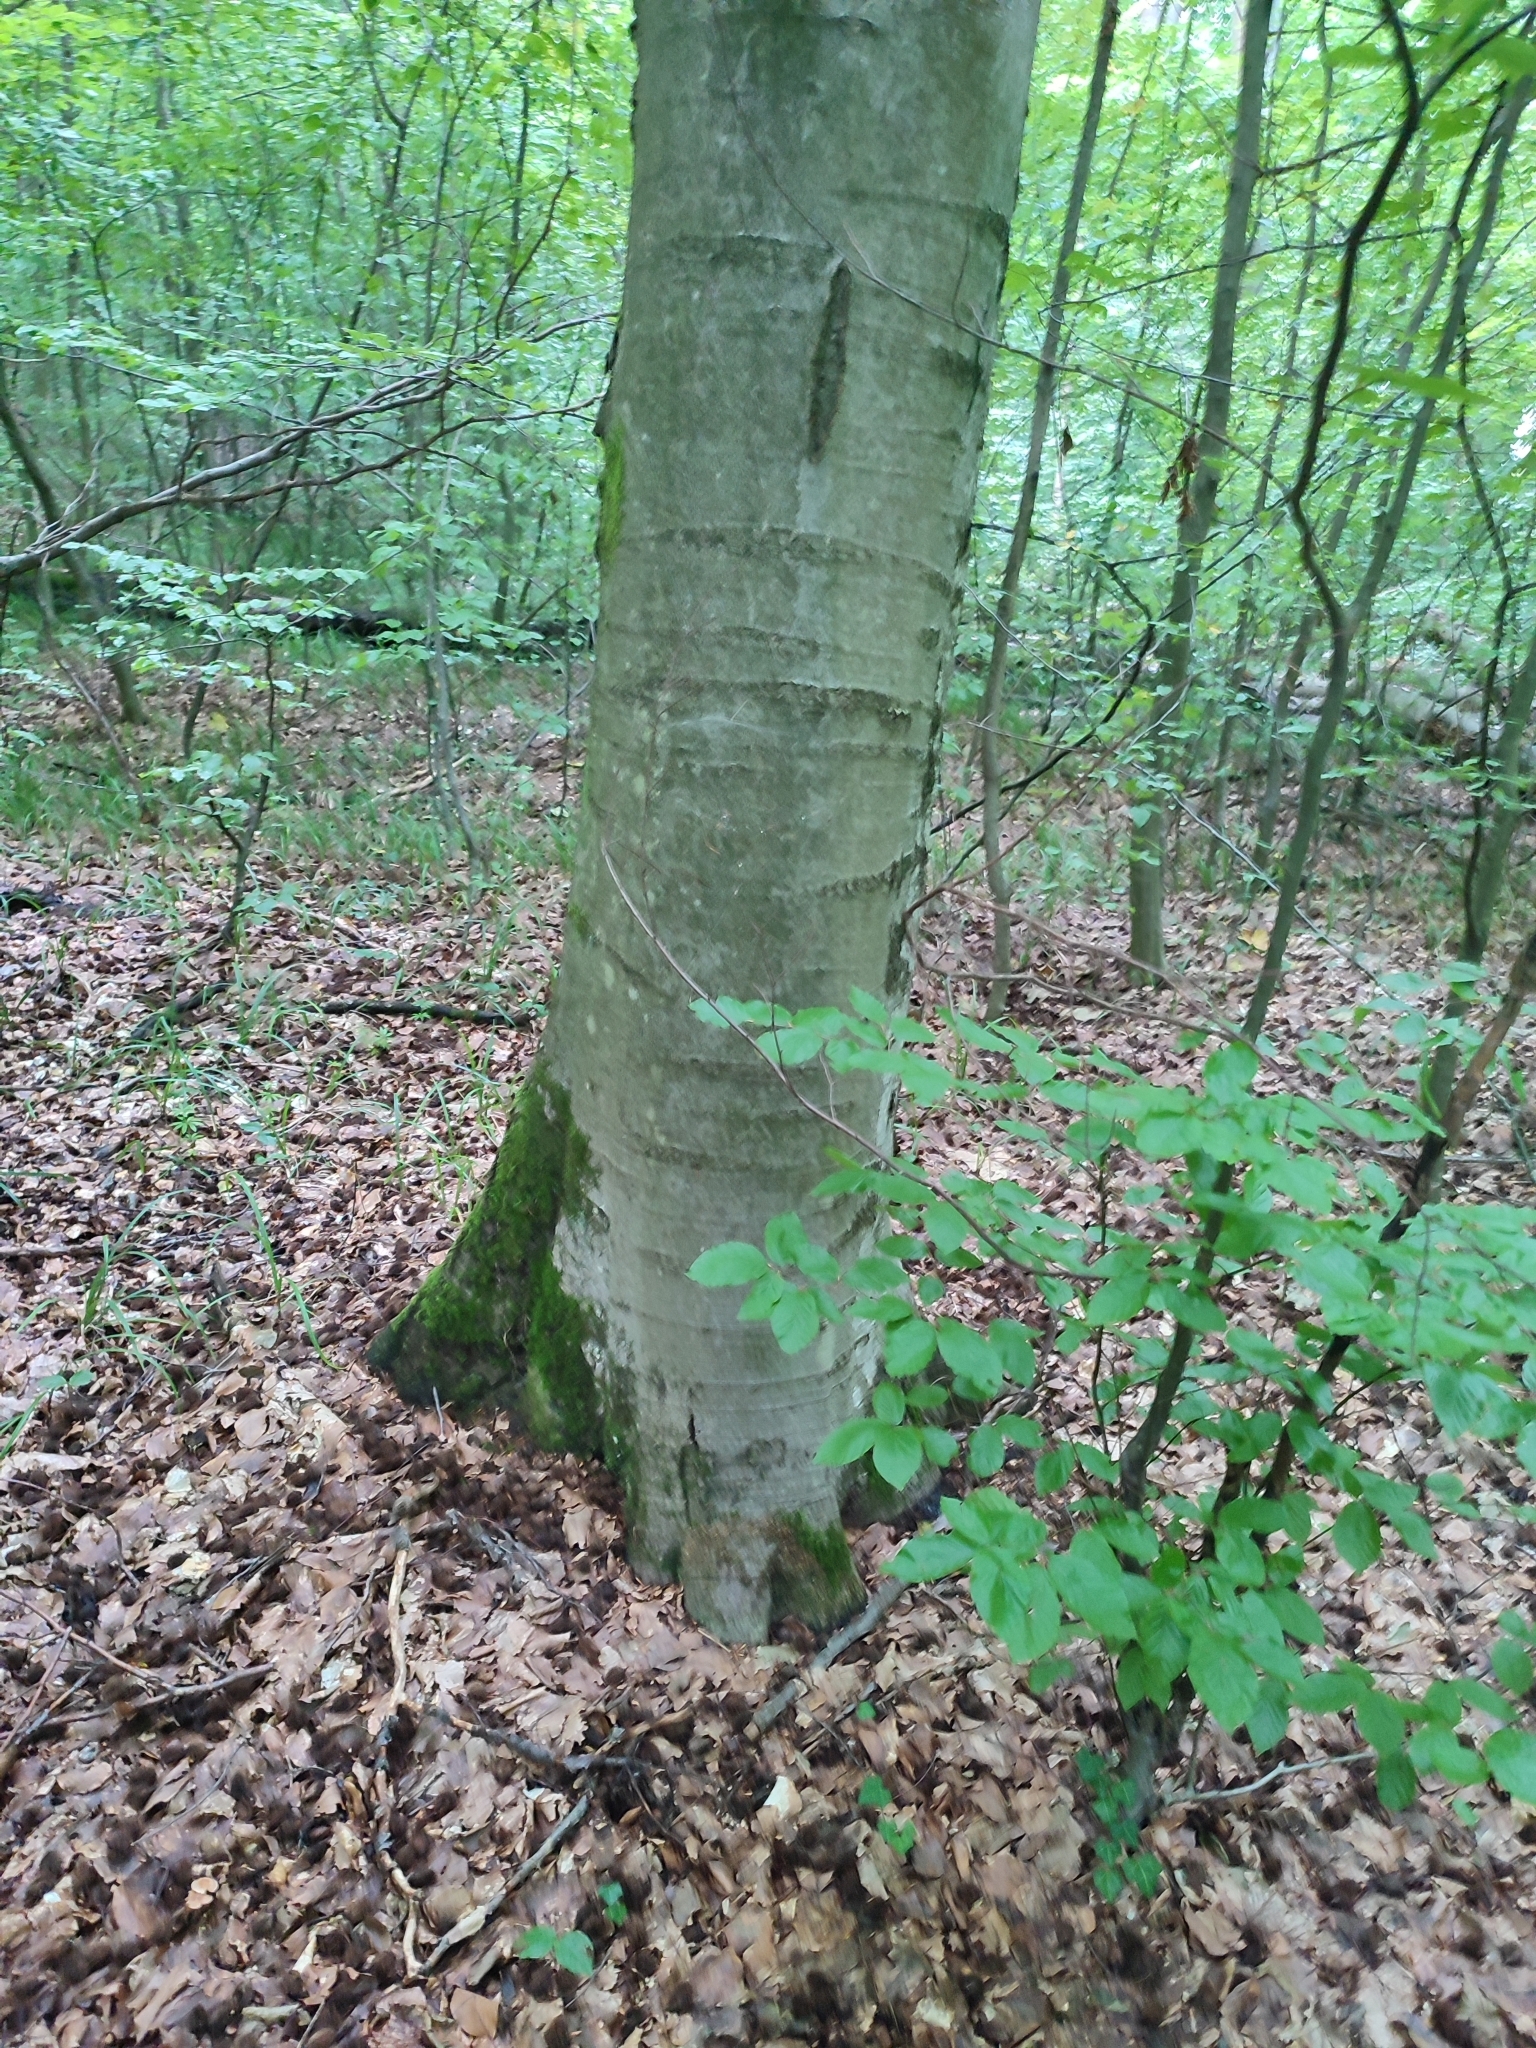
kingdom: Plantae
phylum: Tracheophyta
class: Magnoliopsida
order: Fagales
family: Fagaceae
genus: Fagus
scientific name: Fagus sylvatica
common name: Beech
